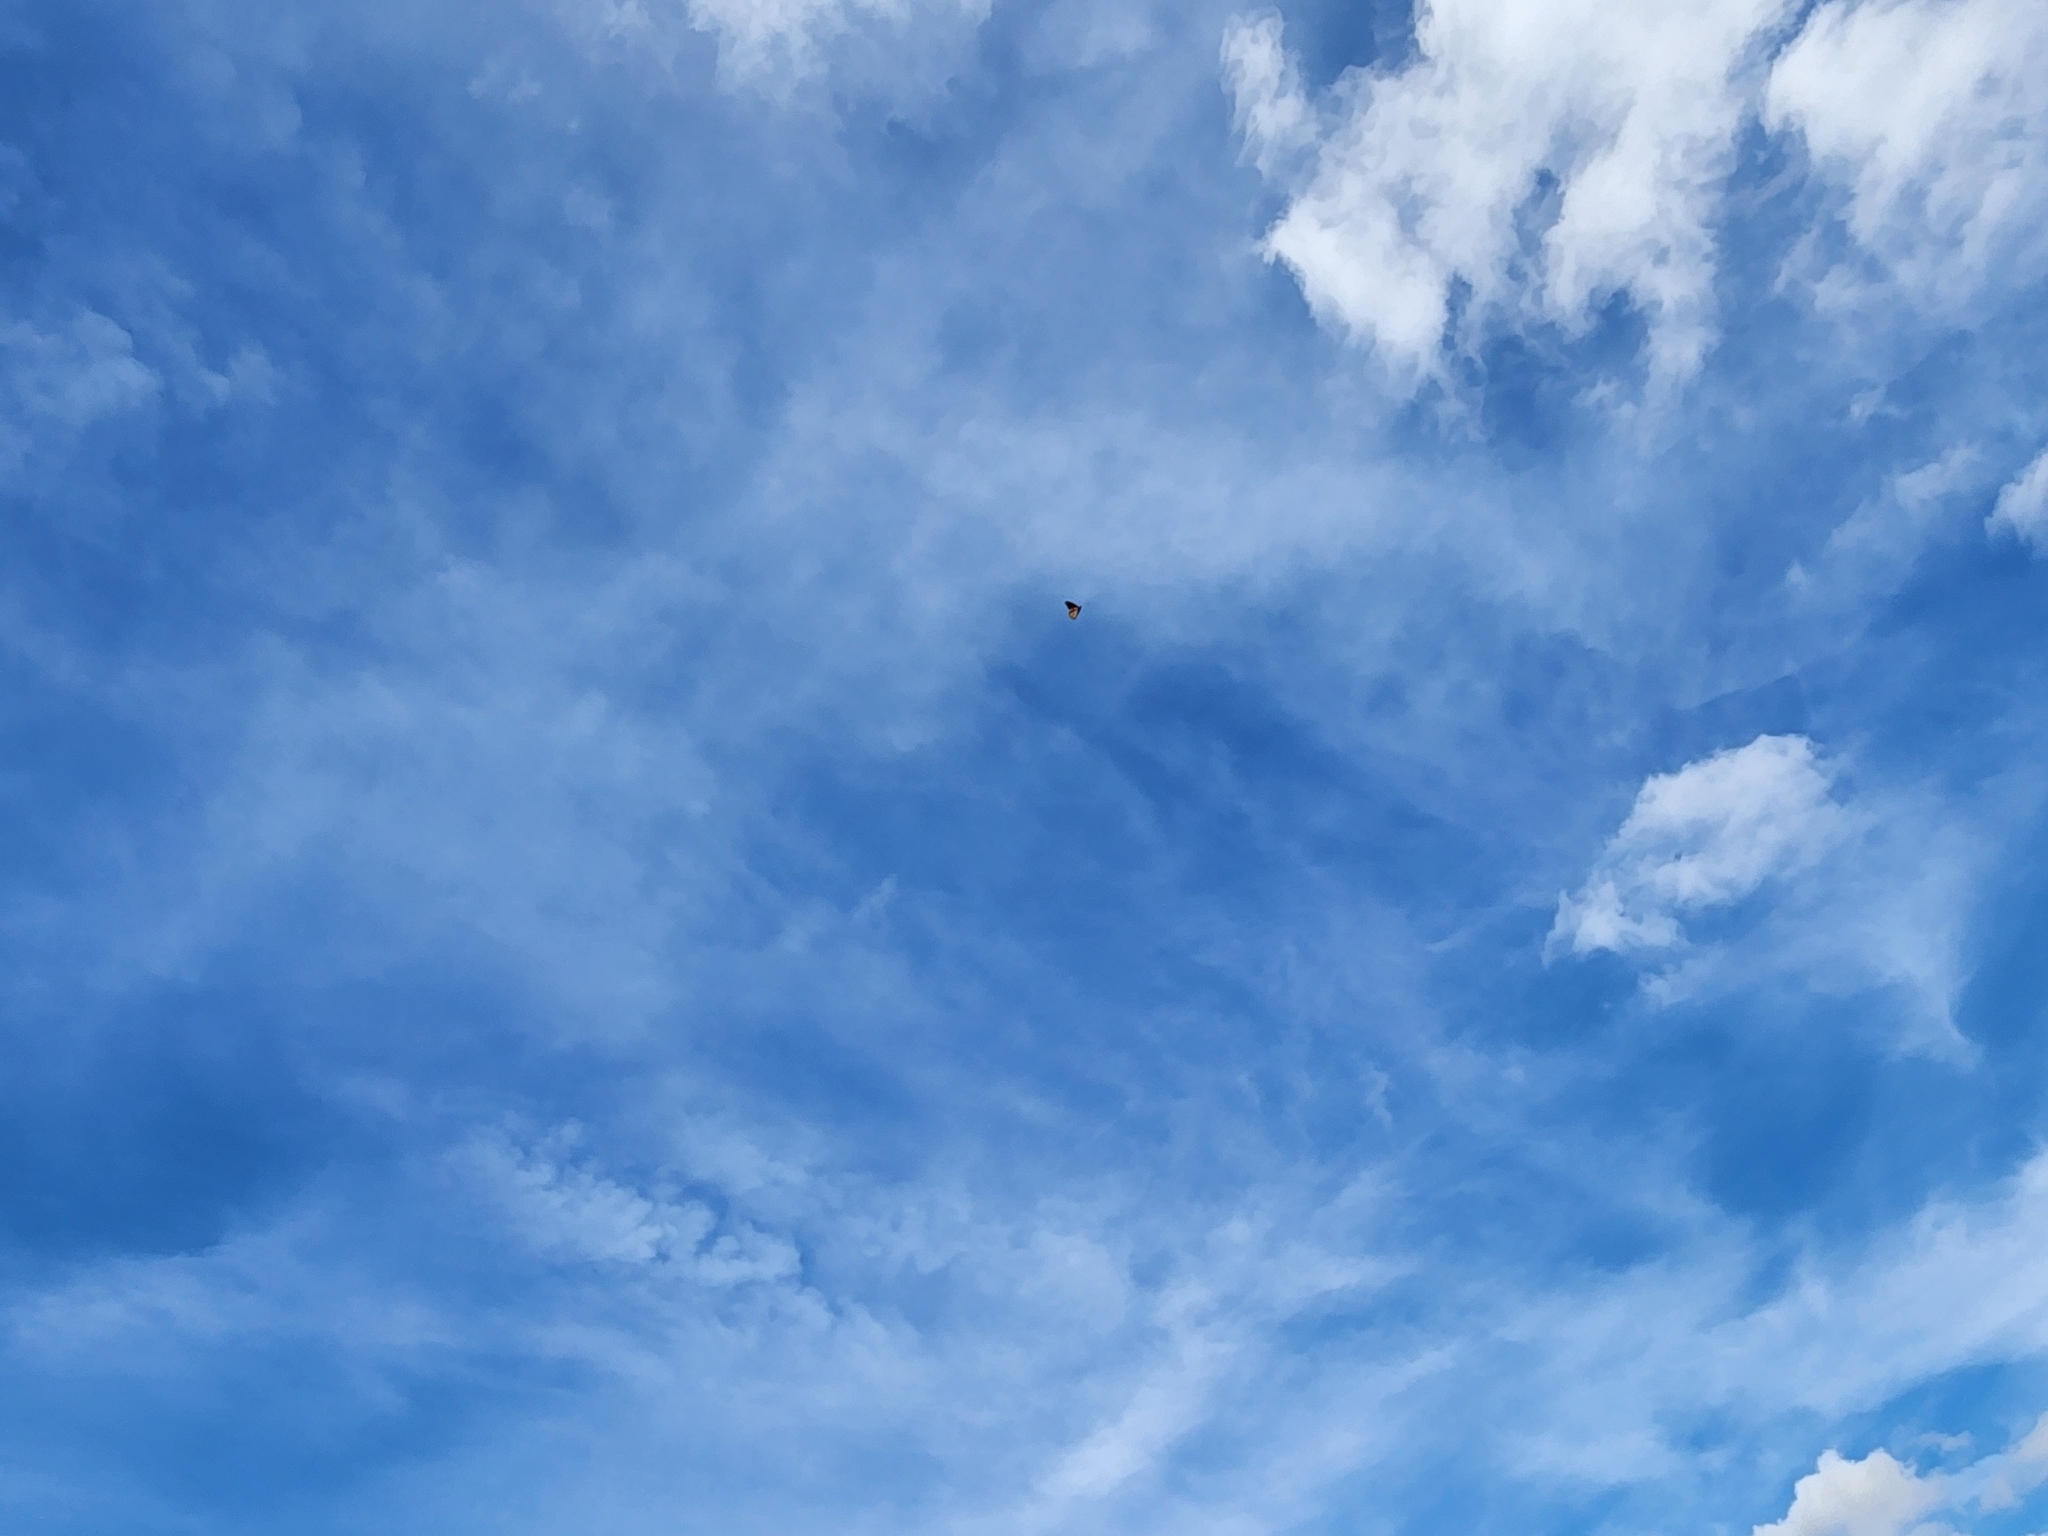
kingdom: Animalia
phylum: Arthropoda
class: Insecta
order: Lepidoptera
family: Nymphalidae
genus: Danaus
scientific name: Danaus plexippus
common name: Monarch
